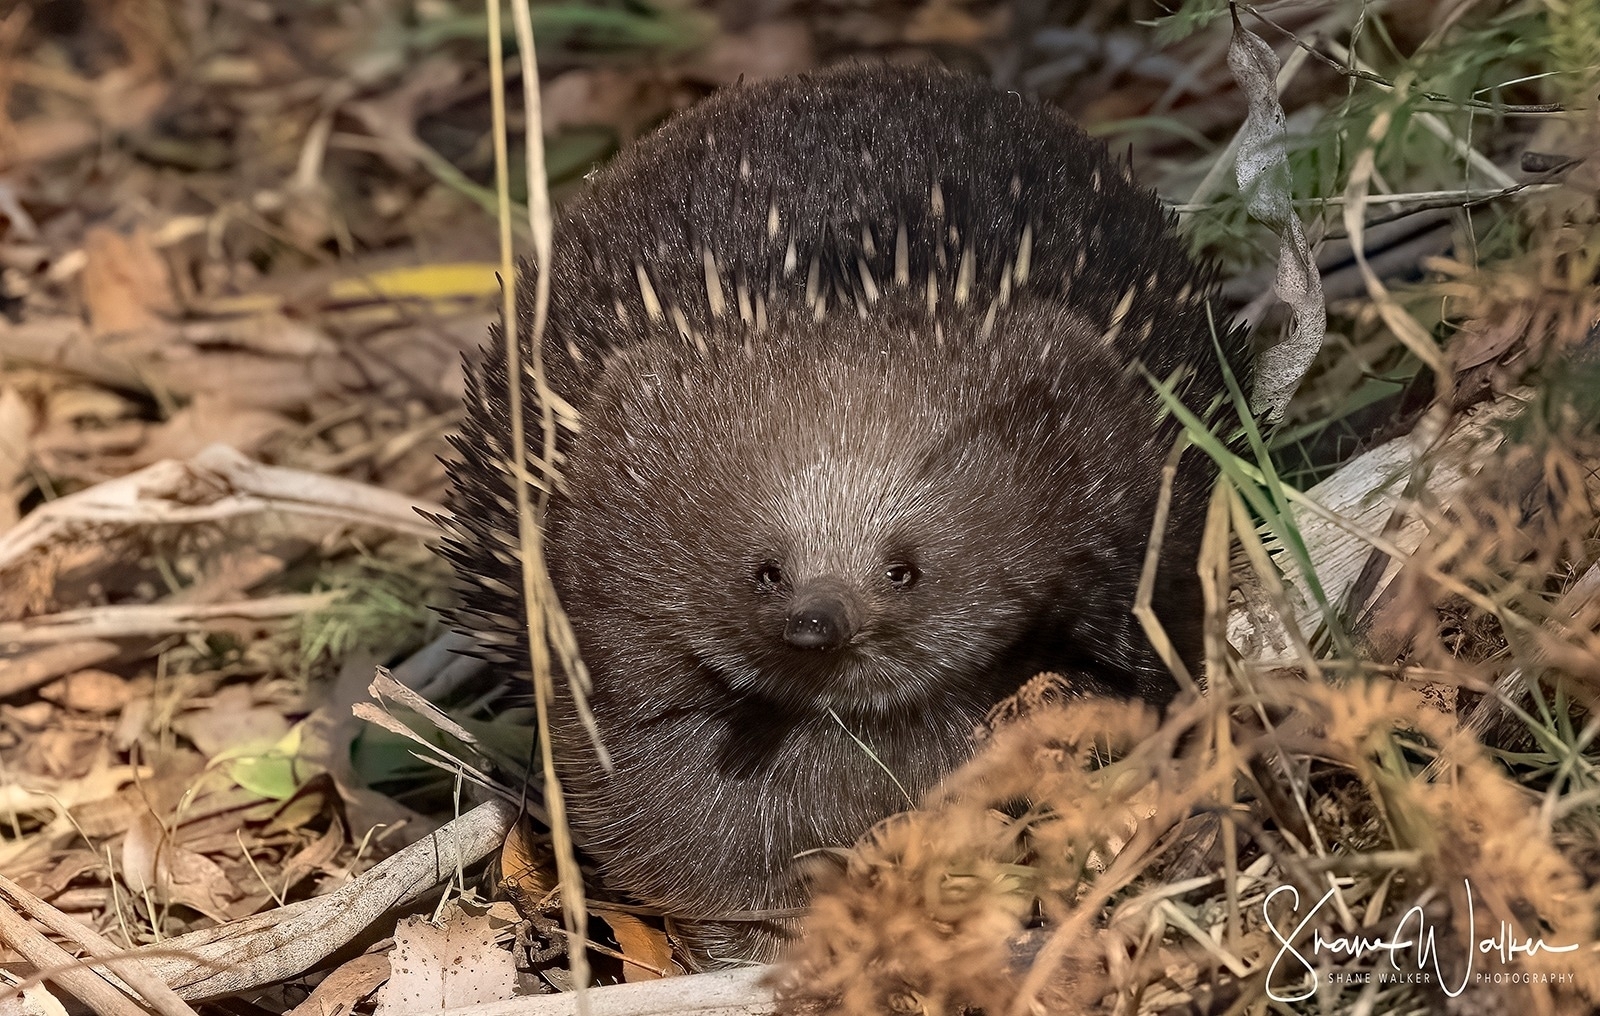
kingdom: Animalia
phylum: Chordata
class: Mammalia
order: Monotremata
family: Tachyglossidae
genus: Tachyglossus
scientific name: Tachyglossus aculeatus
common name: Short-beaked echidna
